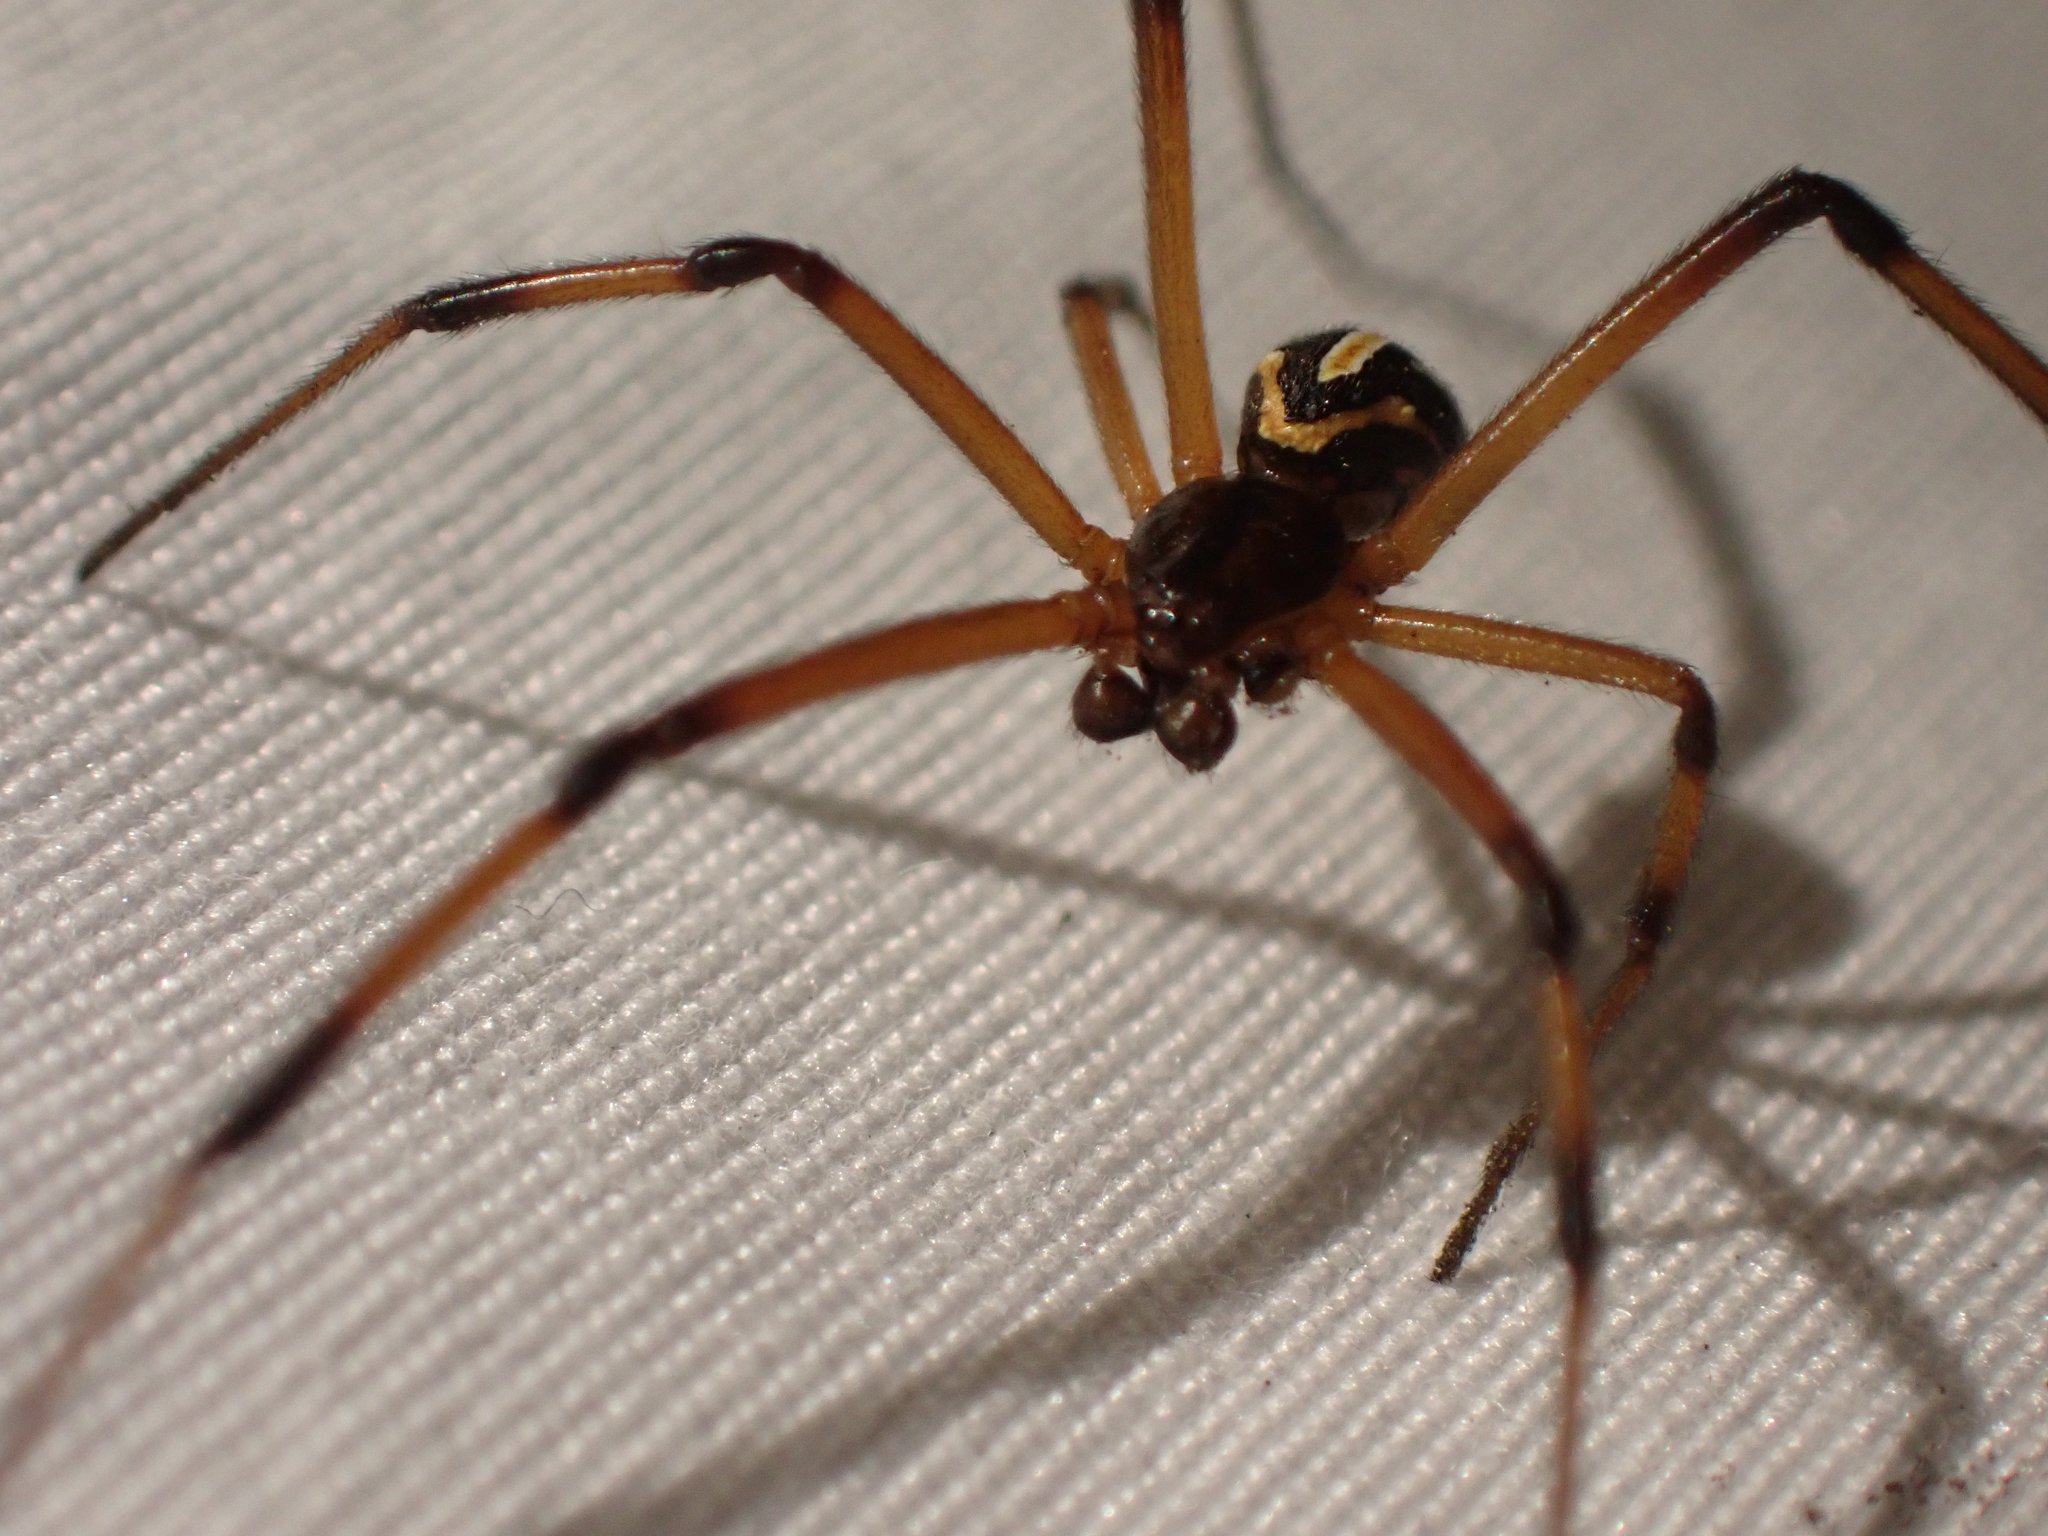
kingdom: Animalia
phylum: Arthropoda
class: Arachnida
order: Araneae
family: Theridiidae
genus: Latrodectus
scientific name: Latrodectus hesperus
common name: Western black widow
